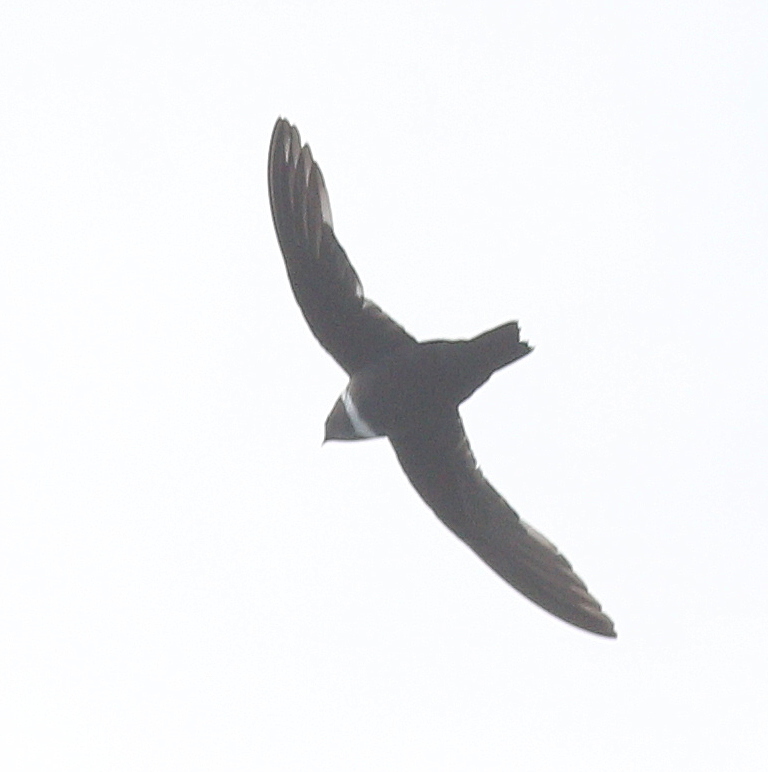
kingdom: Animalia
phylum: Chordata
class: Aves
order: Apodiformes
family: Apodidae
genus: Streptoprocne
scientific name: Streptoprocne zonaris
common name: White-collared swift
